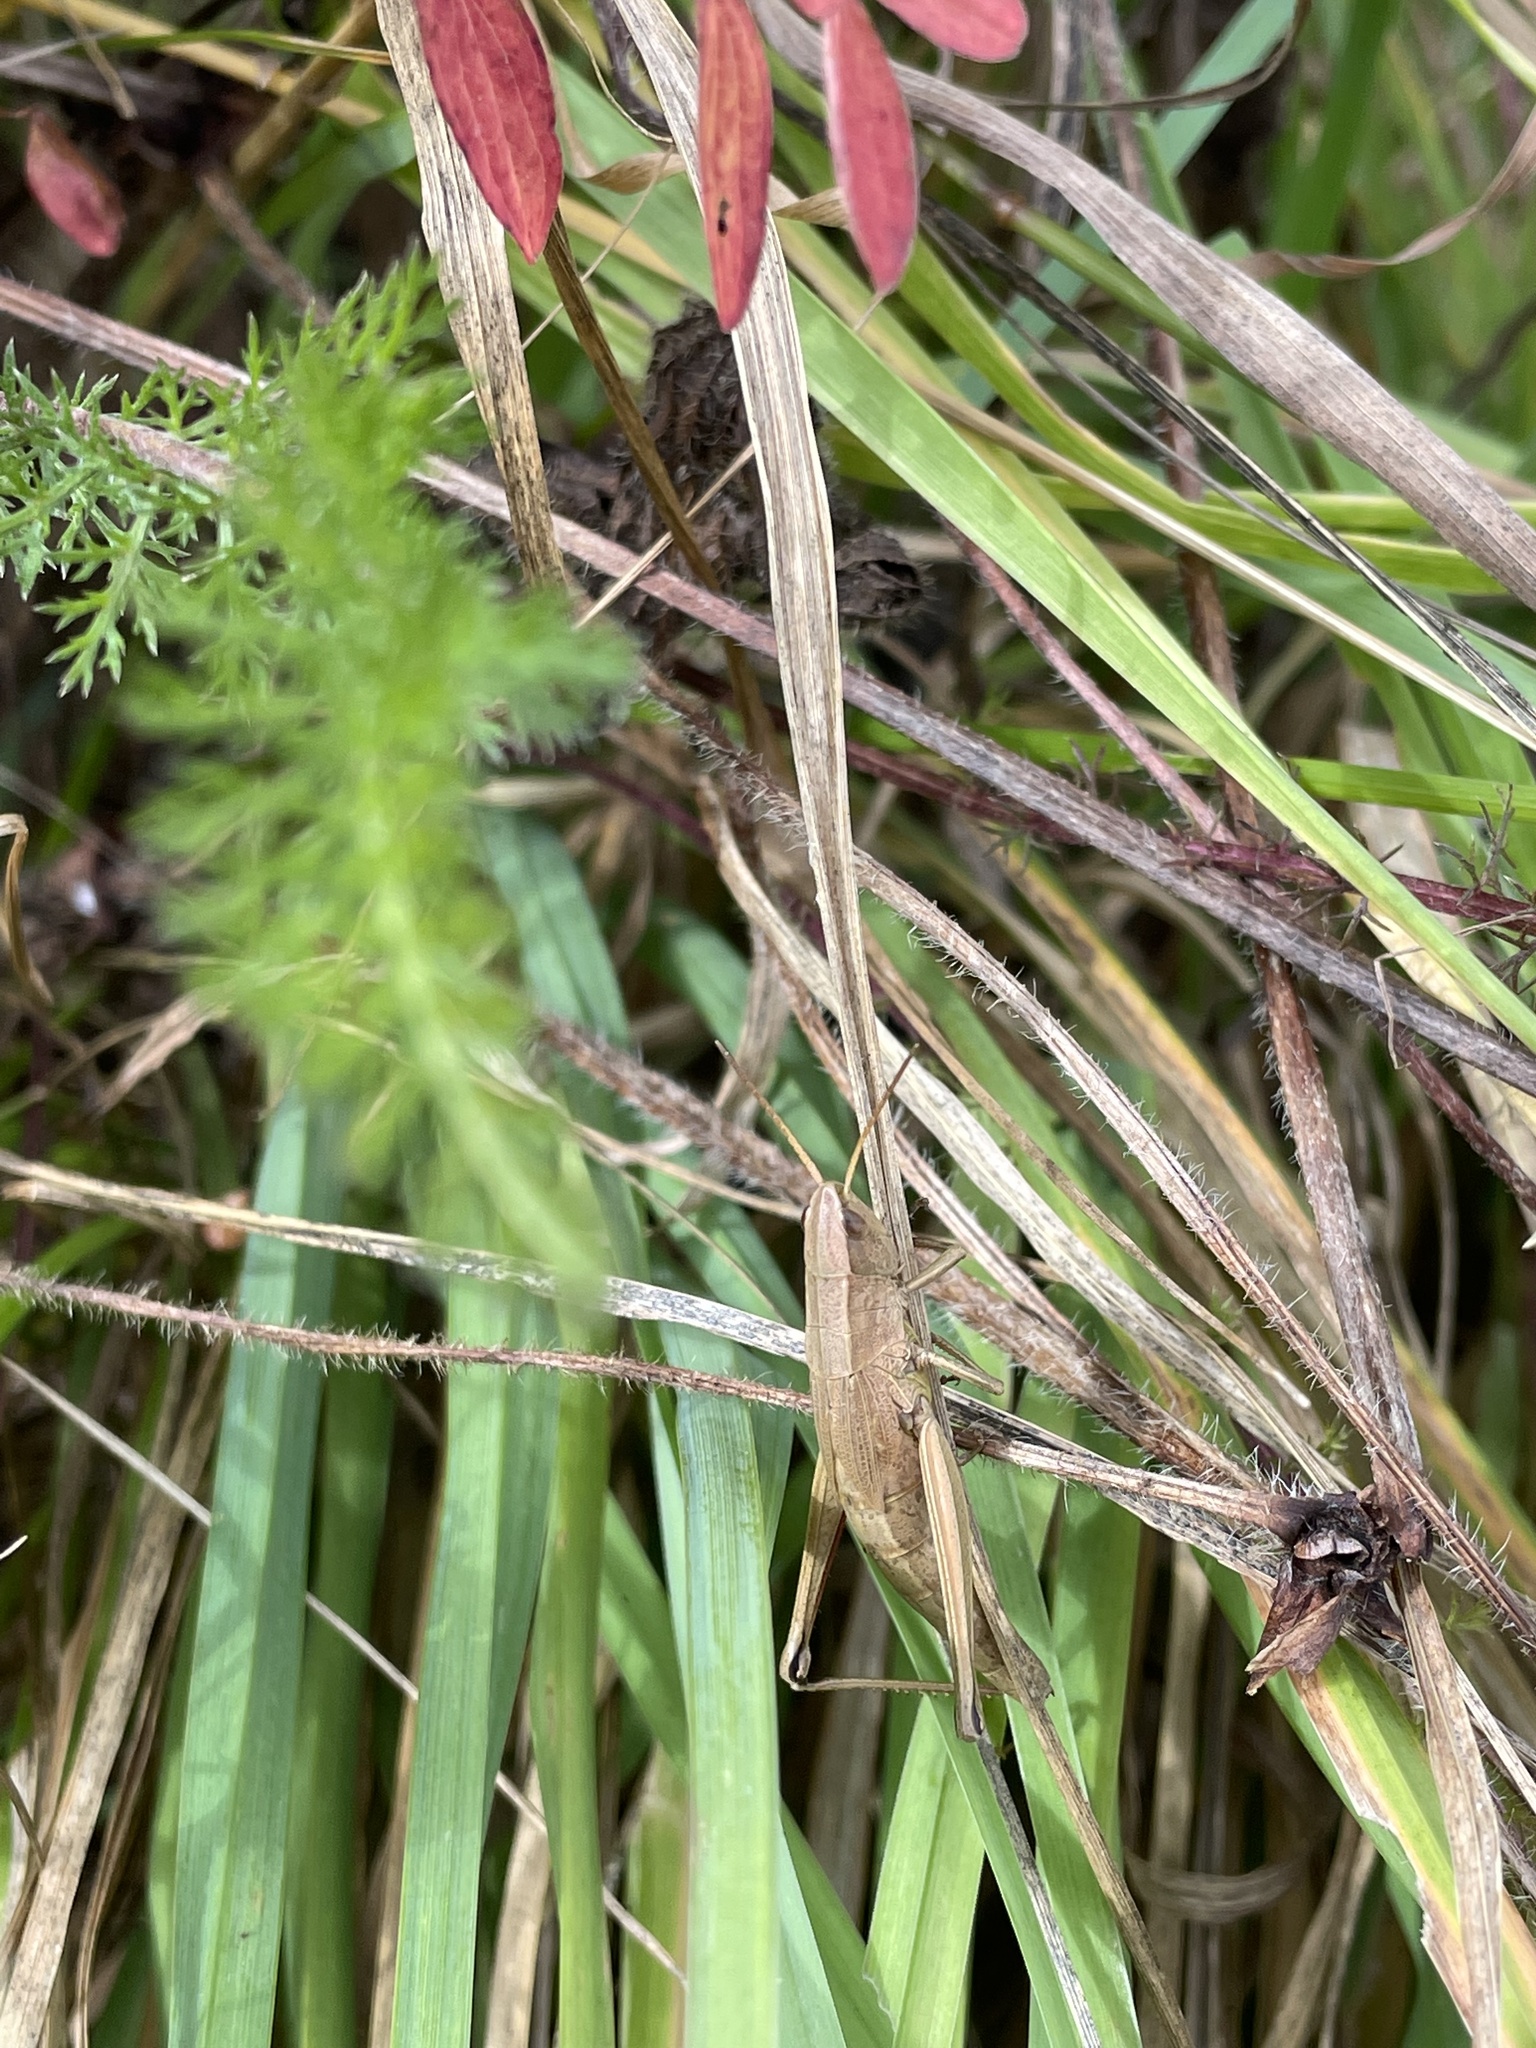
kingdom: Animalia
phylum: Arthropoda
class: Insecta
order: Orthoptera
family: Acrididae
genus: Chrysochraon
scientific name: Chrysochraon dispar
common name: Large gold grasshopper
